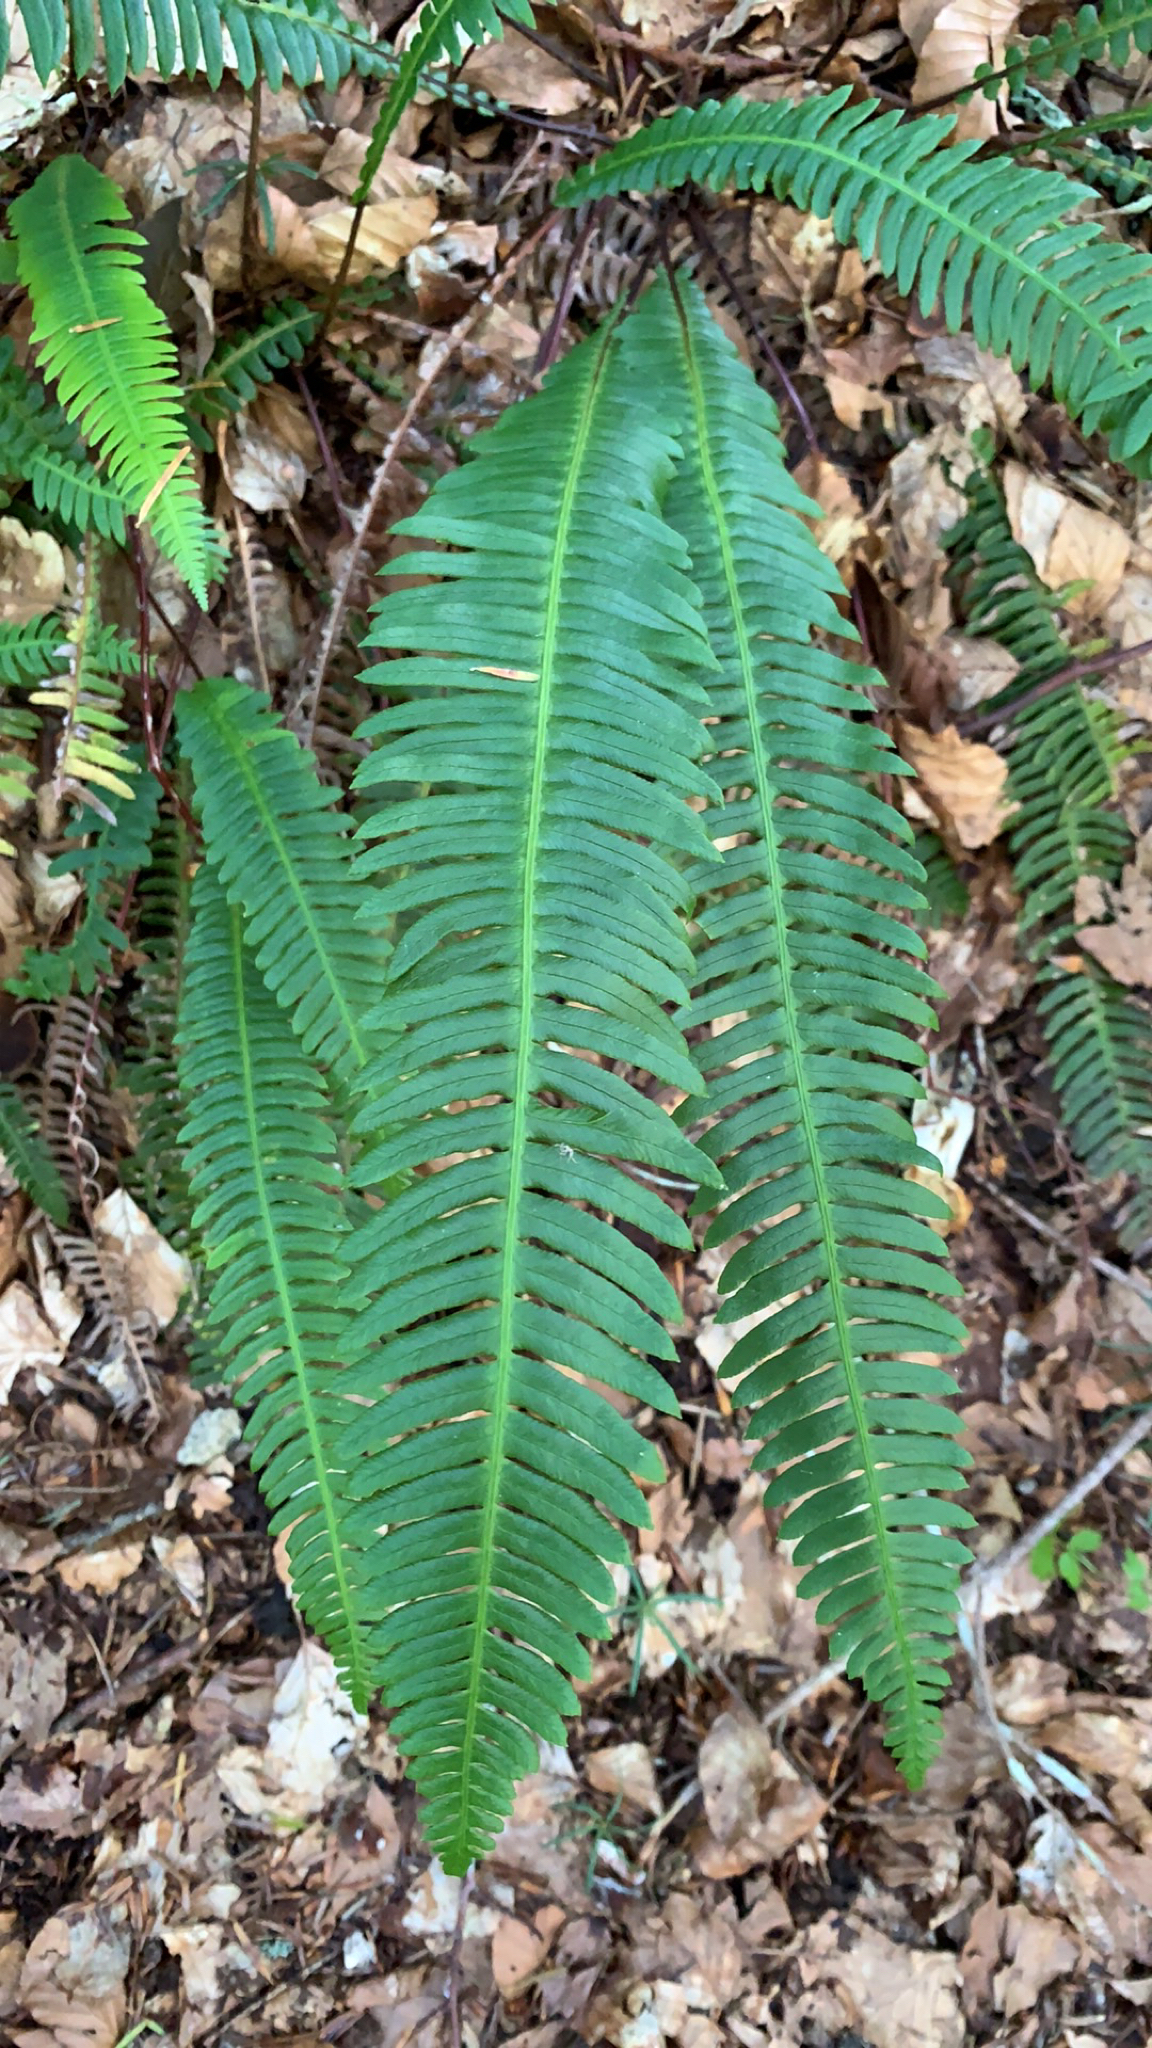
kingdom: Plantae
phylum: Tracheophyta
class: Polypodiopsida
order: Polypodiales
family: Blechnaceae
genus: Struthiopteris
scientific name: Struthiopteris spicant
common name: Deer fern
